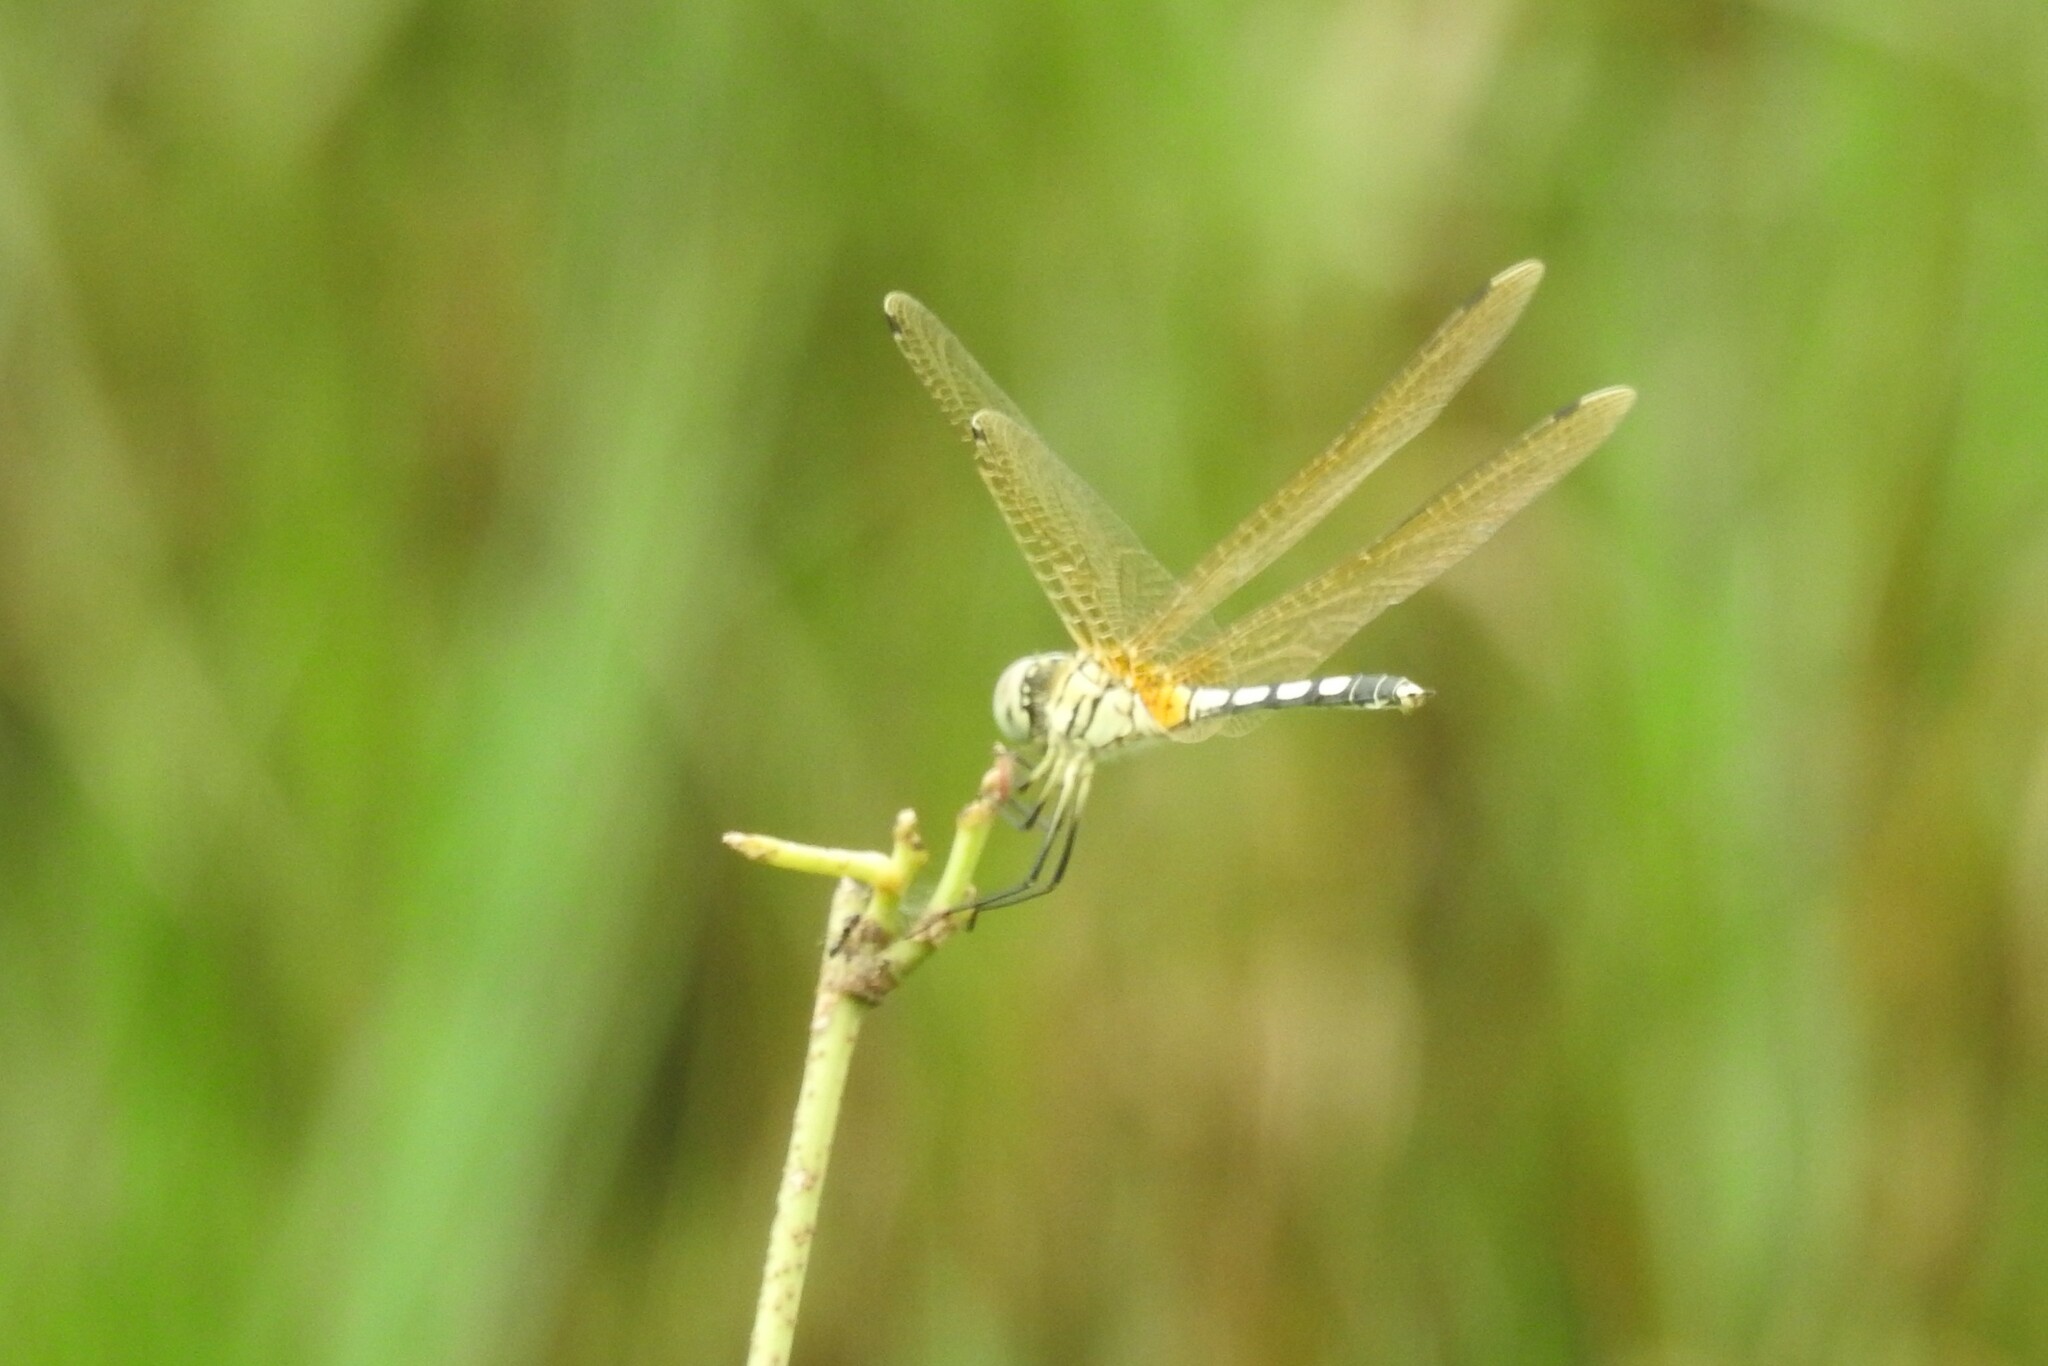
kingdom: Animalia
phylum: Arthropoda
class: Insecta
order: Odonata
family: Libellulidae
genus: Trithemis
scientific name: Trithemis pallidinervis
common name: Dancing dropwing
